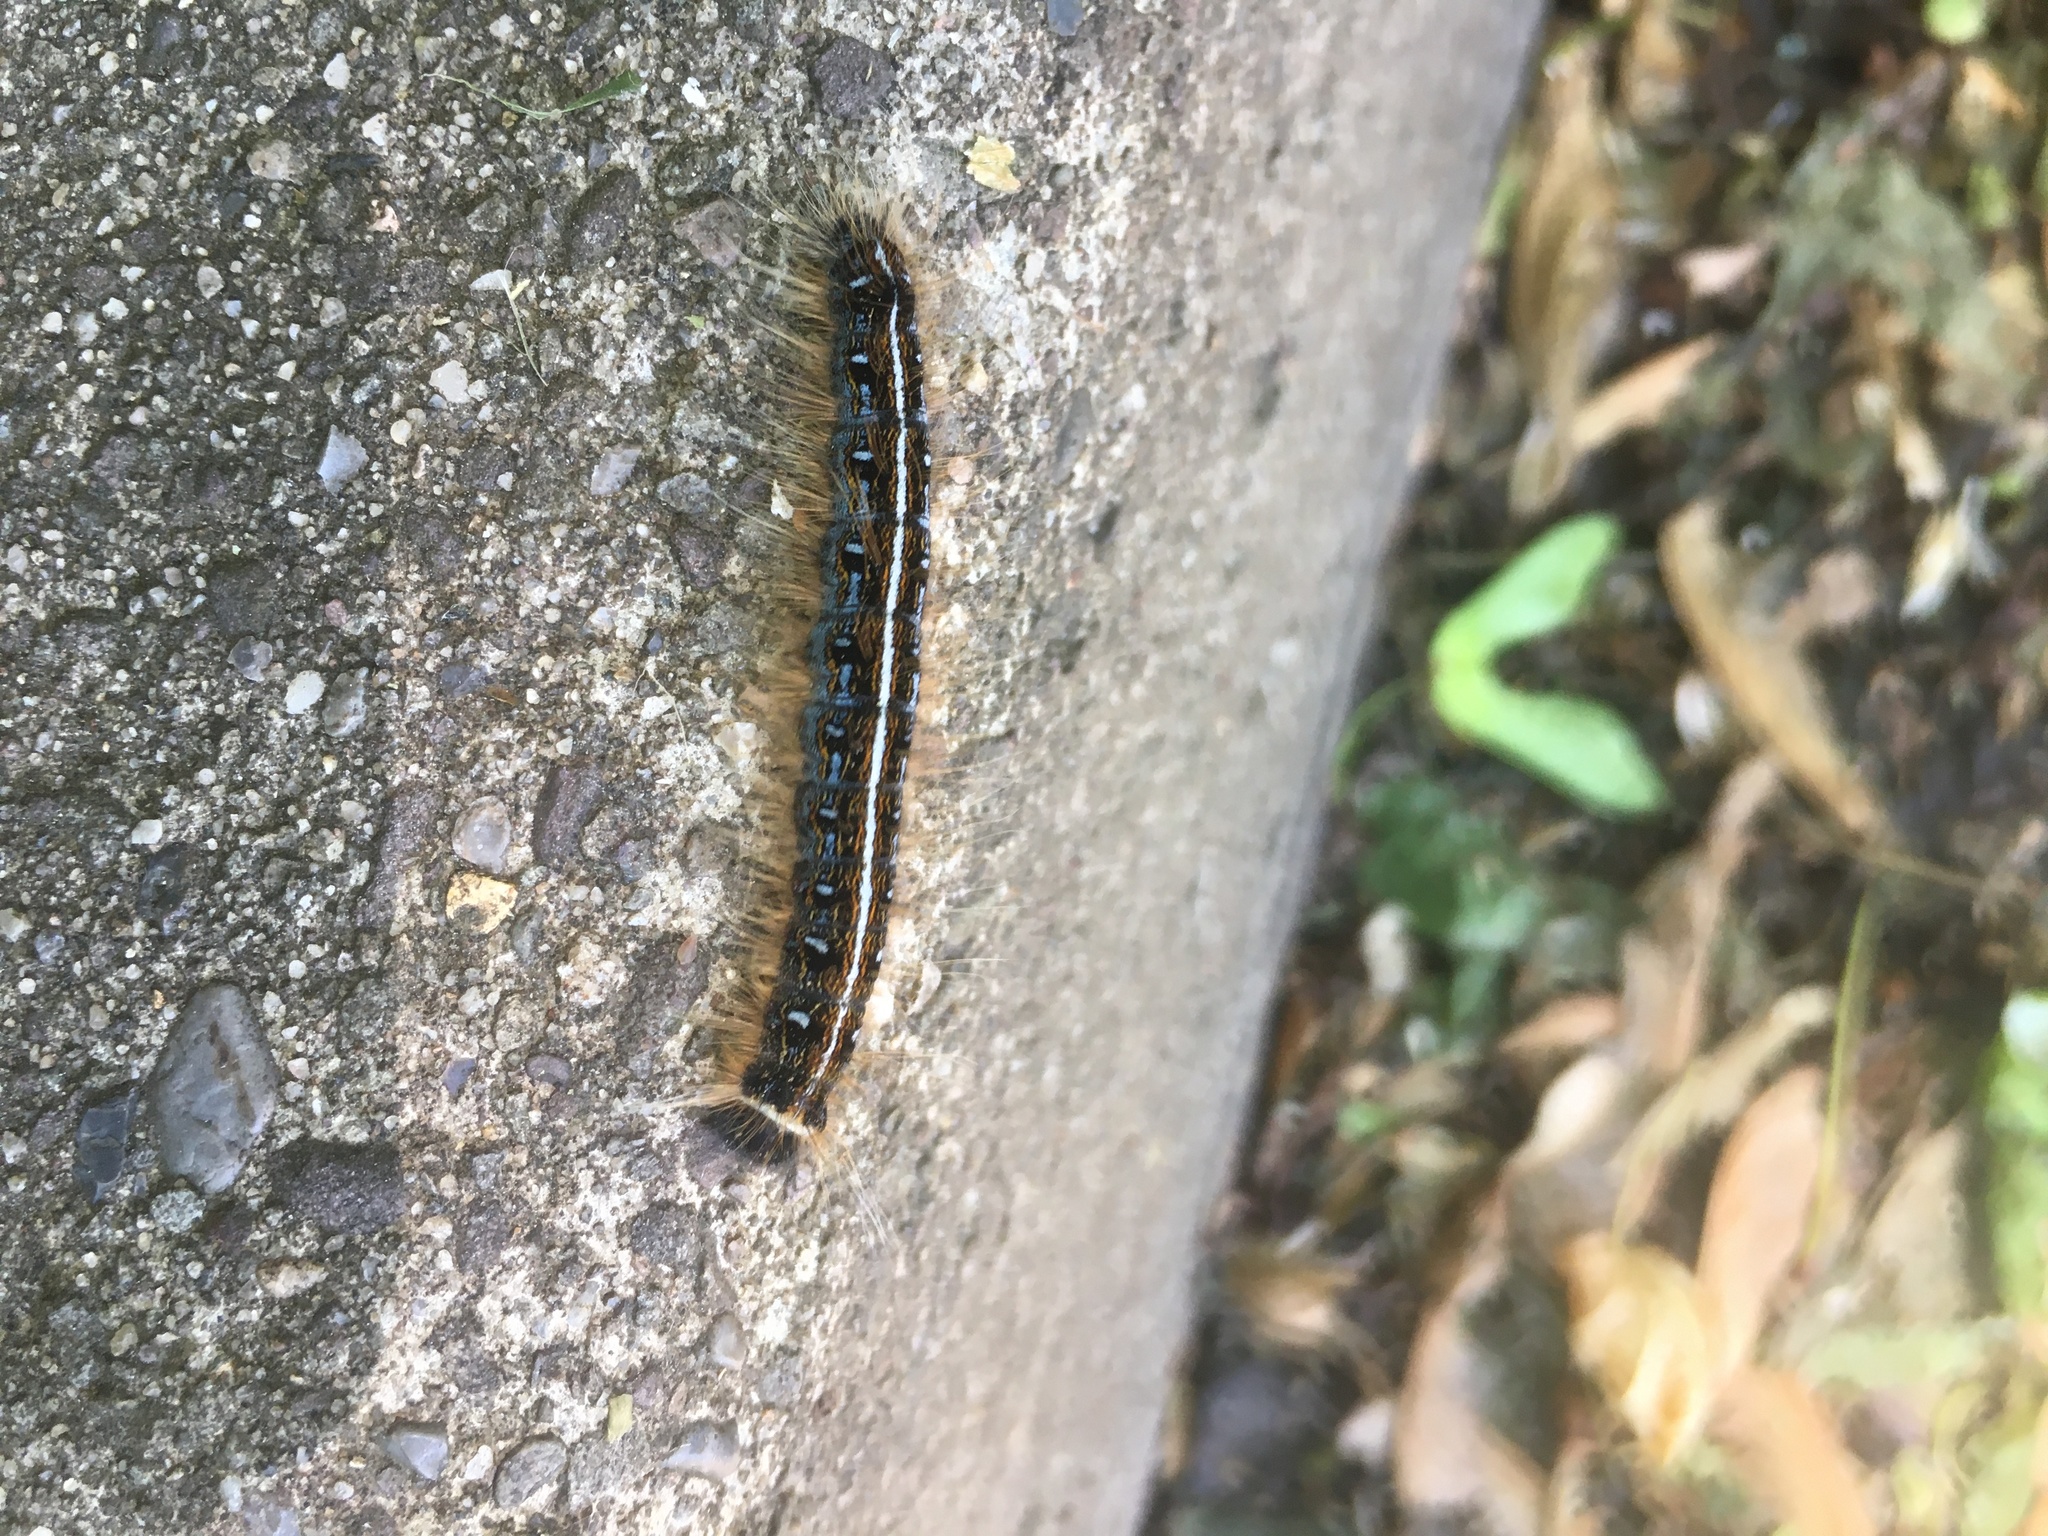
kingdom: Animalia
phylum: Arthropoda
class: Insecta
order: Lepidoptera
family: Lasiocampidae
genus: Malacosoma
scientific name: Malacosoma americana
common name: Eastern tent caterpillar moth
